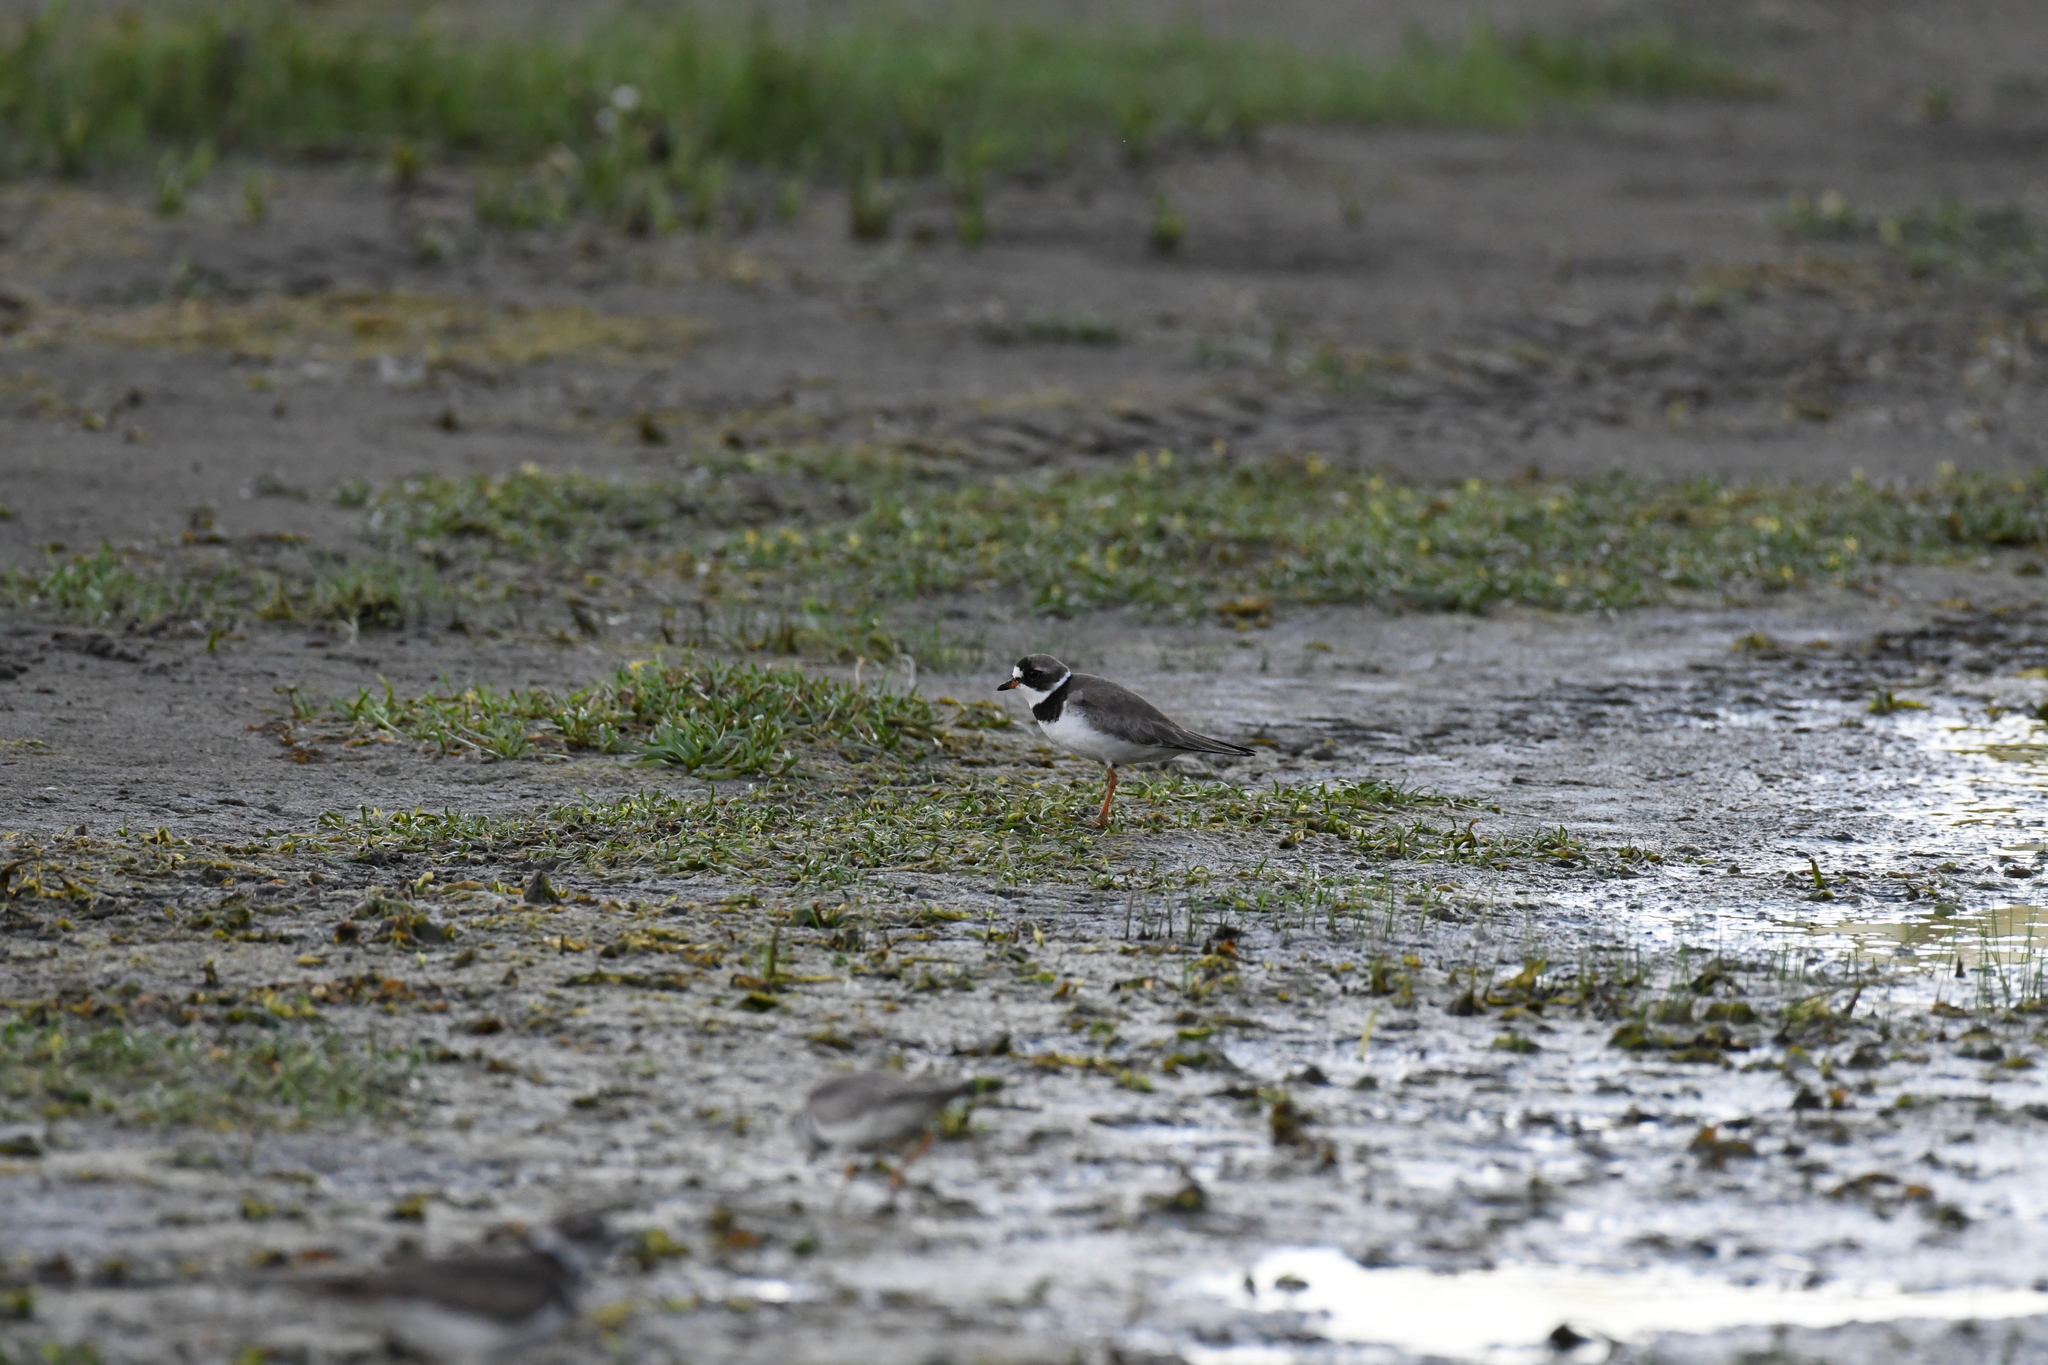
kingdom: Animalia
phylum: Chordata
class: Aves
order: Charadriiformes
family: Charadriidae
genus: Charadrius
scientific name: Charadrius semipalmatus
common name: Semipalmated plover
